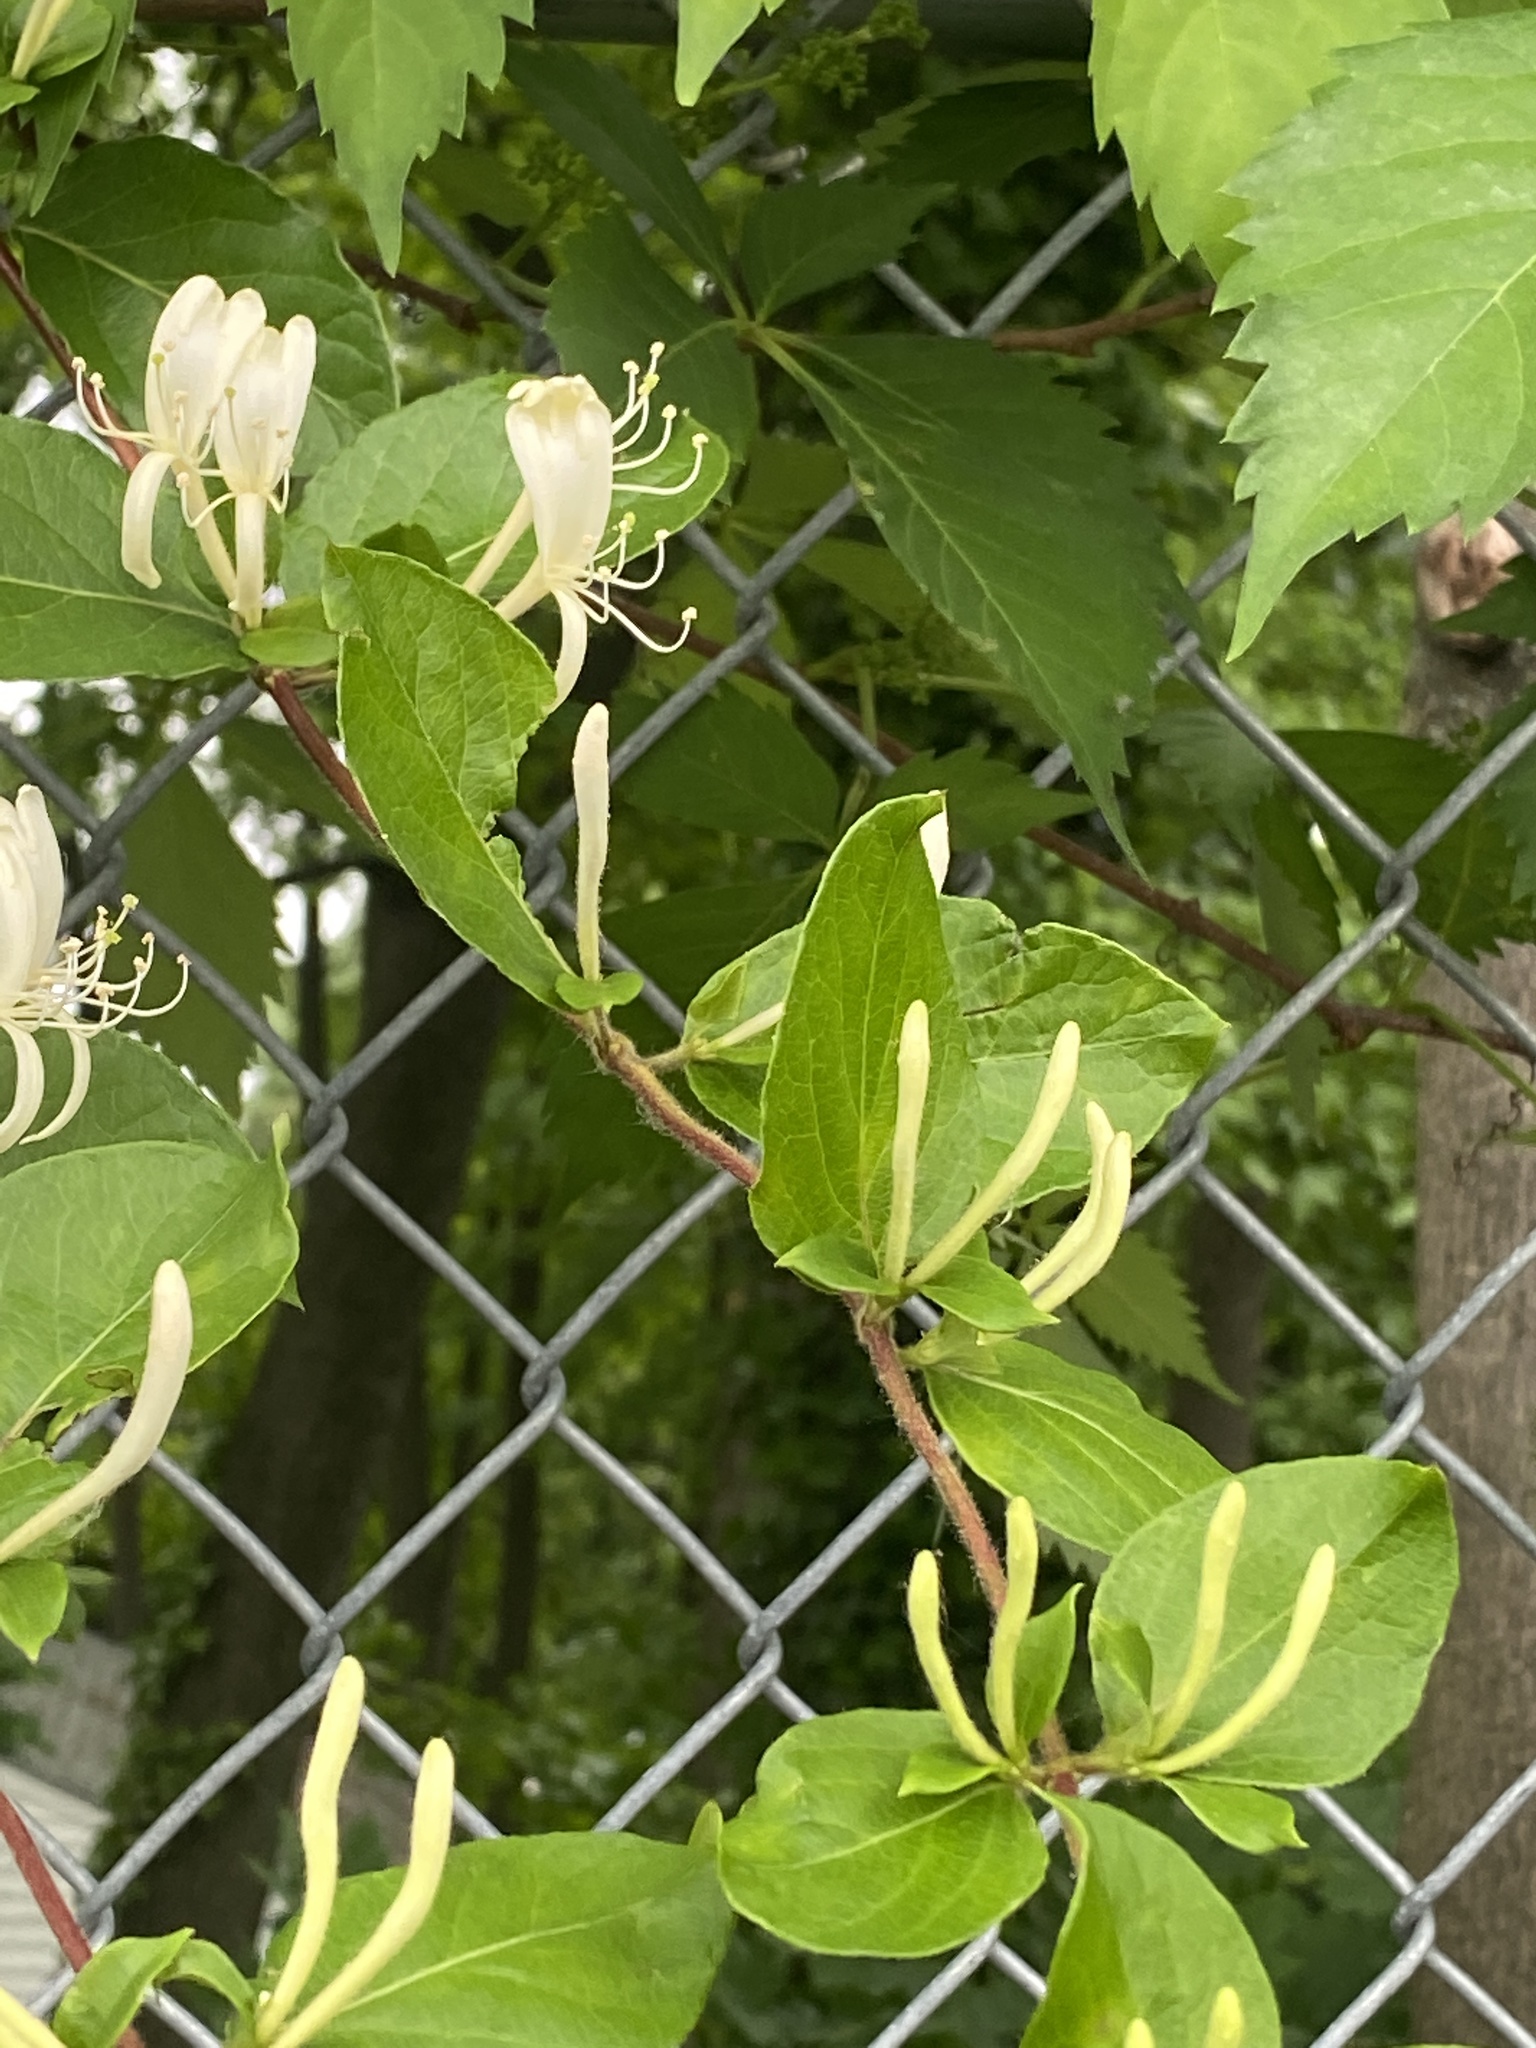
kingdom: Plantae
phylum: Tracheophyta
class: Magnoliopsida
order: Dipsacales
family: Caprifoliaceae
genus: Lonicera
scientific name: Lonicera japonica
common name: Japanese honeysuckle
